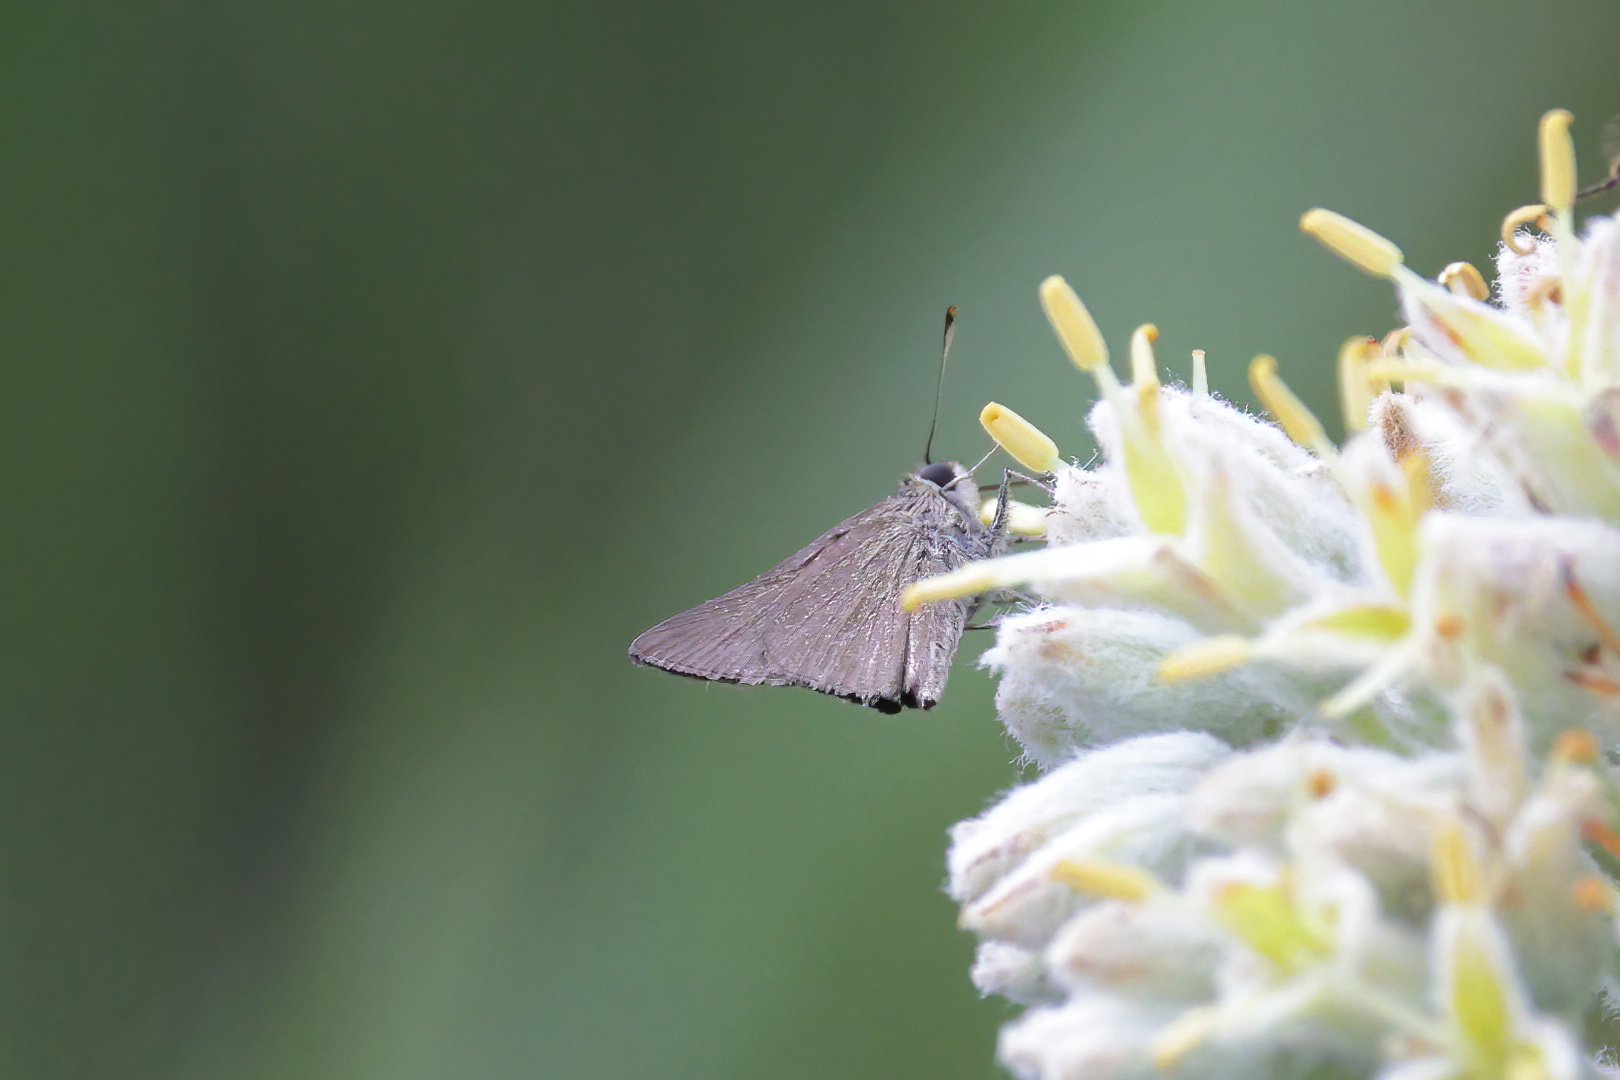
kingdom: Animalia
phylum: Arthropoda
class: Insecta
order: Lepidoptera
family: Hesperiidae
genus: Lerodea
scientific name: Lerodea eufala
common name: Eufala skipper
